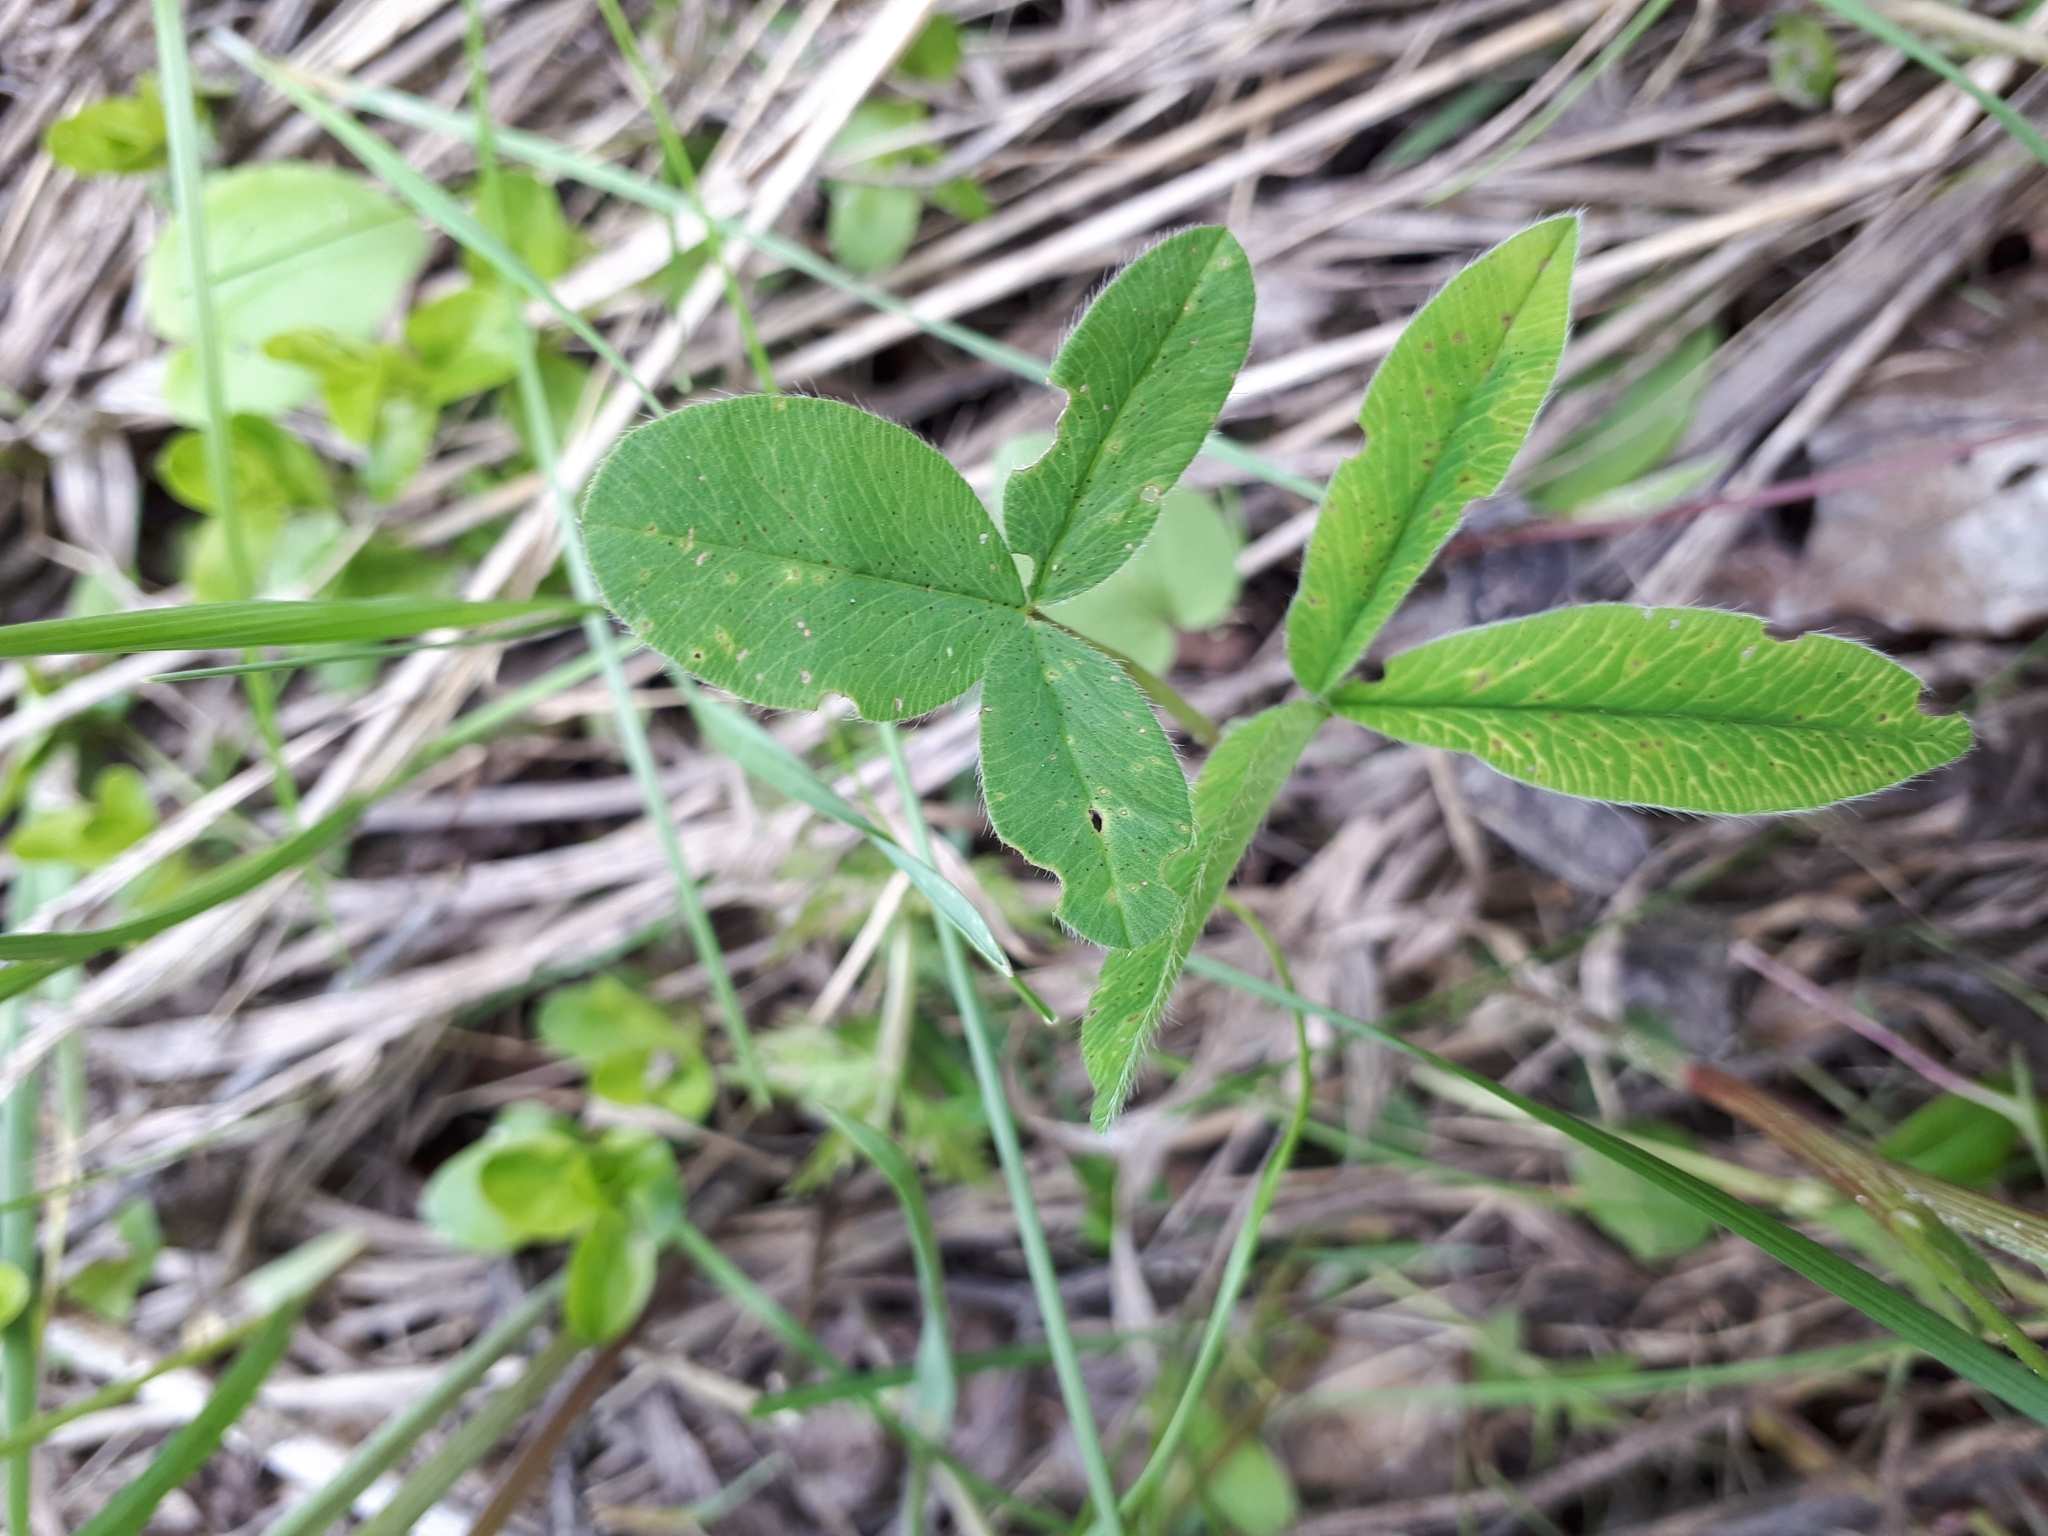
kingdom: Plantae
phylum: Tracheophyta
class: Magnoliopsida
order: Fabales
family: Fabaceae
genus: Trifolium
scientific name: Trifolium medium
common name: Zigzag clover
